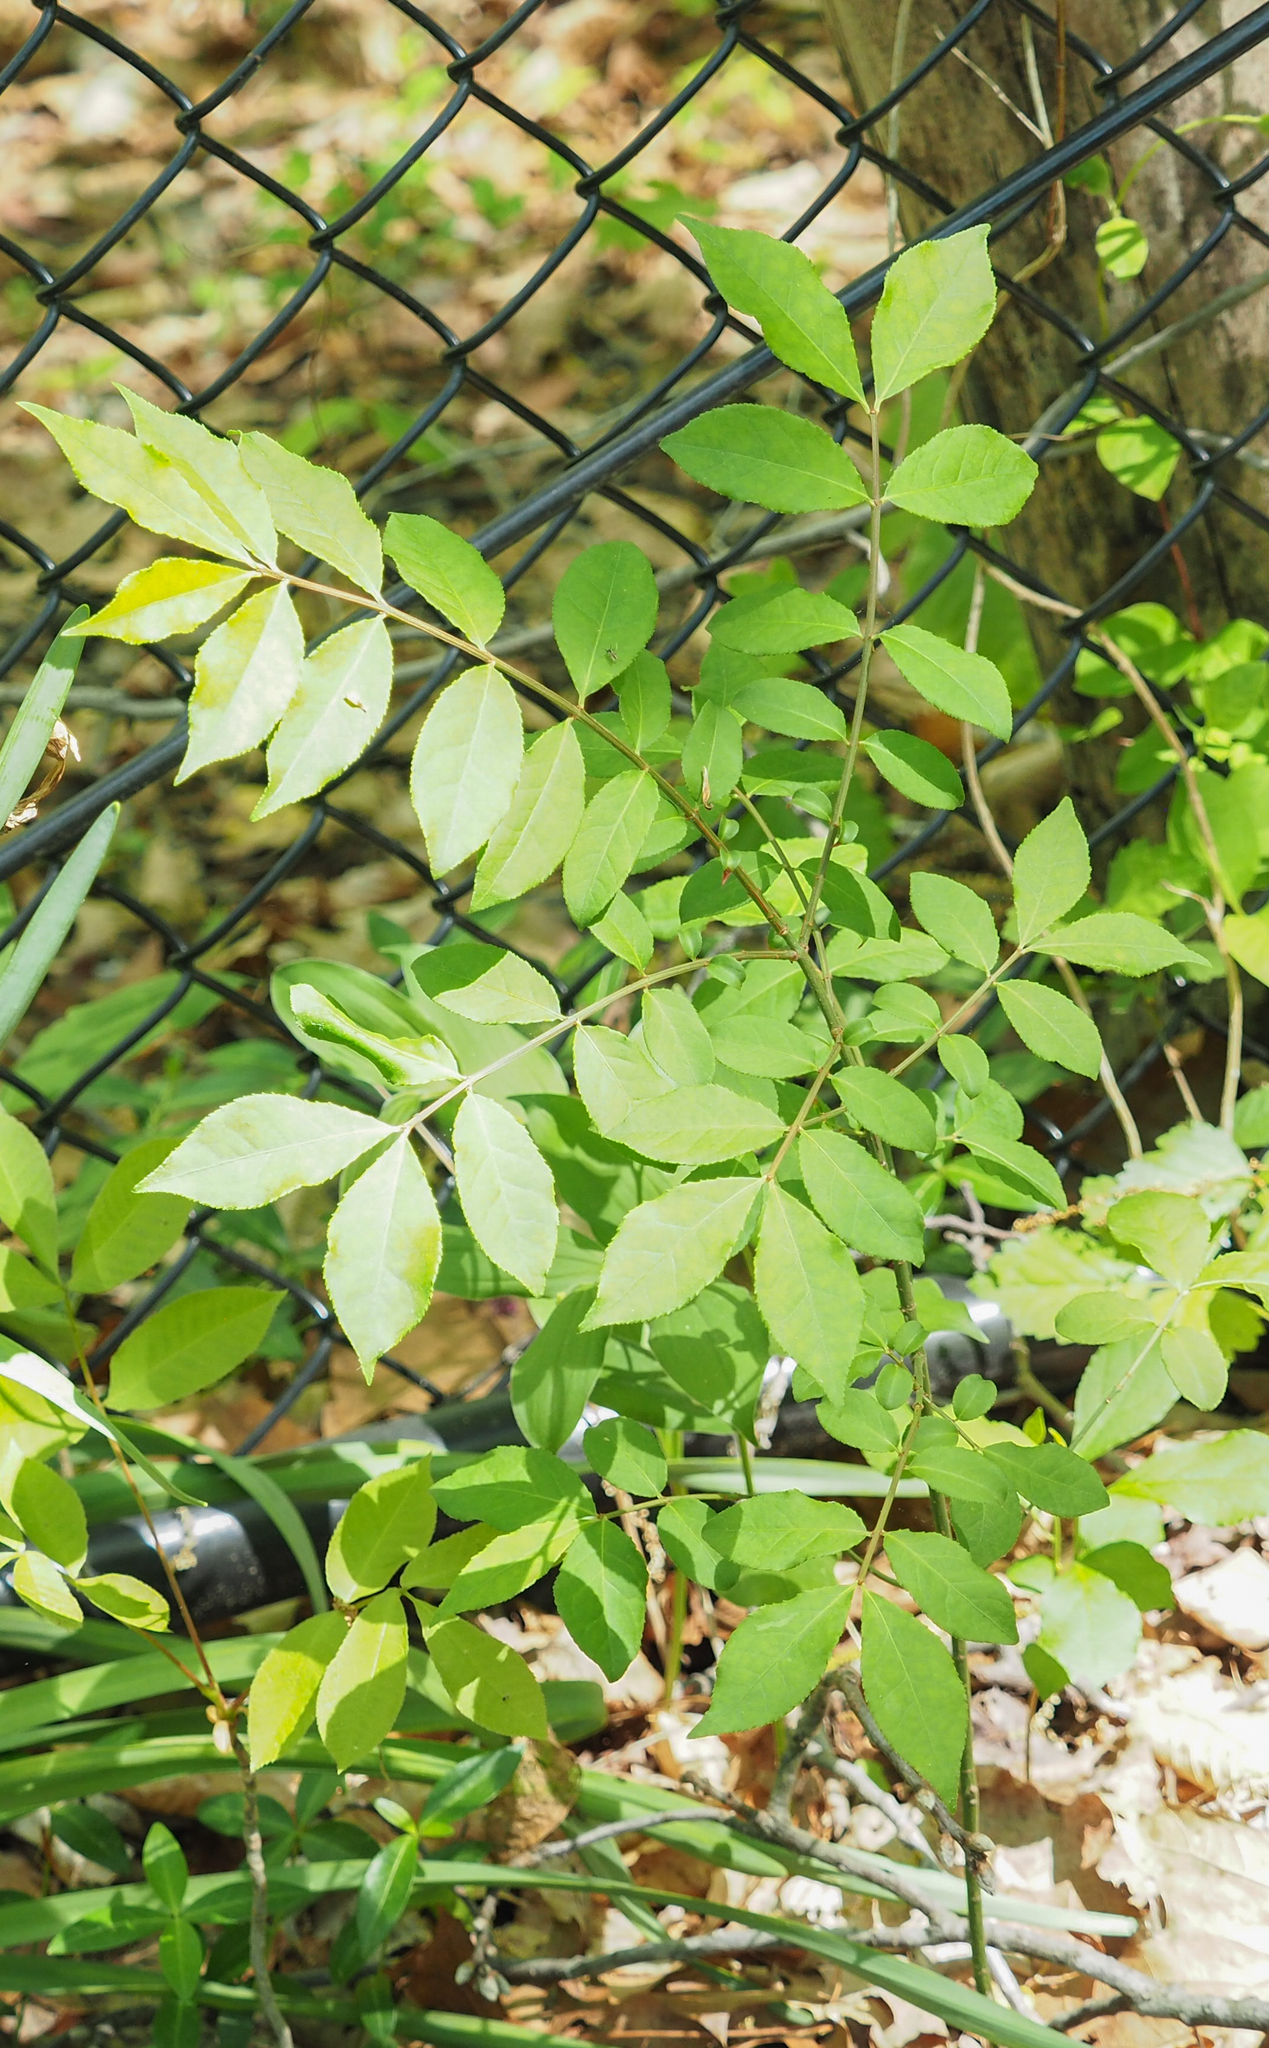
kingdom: Plantae
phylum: Tracheophyta
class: Magnoliopsida
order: Celastrales
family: Celastraceae
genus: Euonymus
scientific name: Euonymus alatus
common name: Winged euonymus
